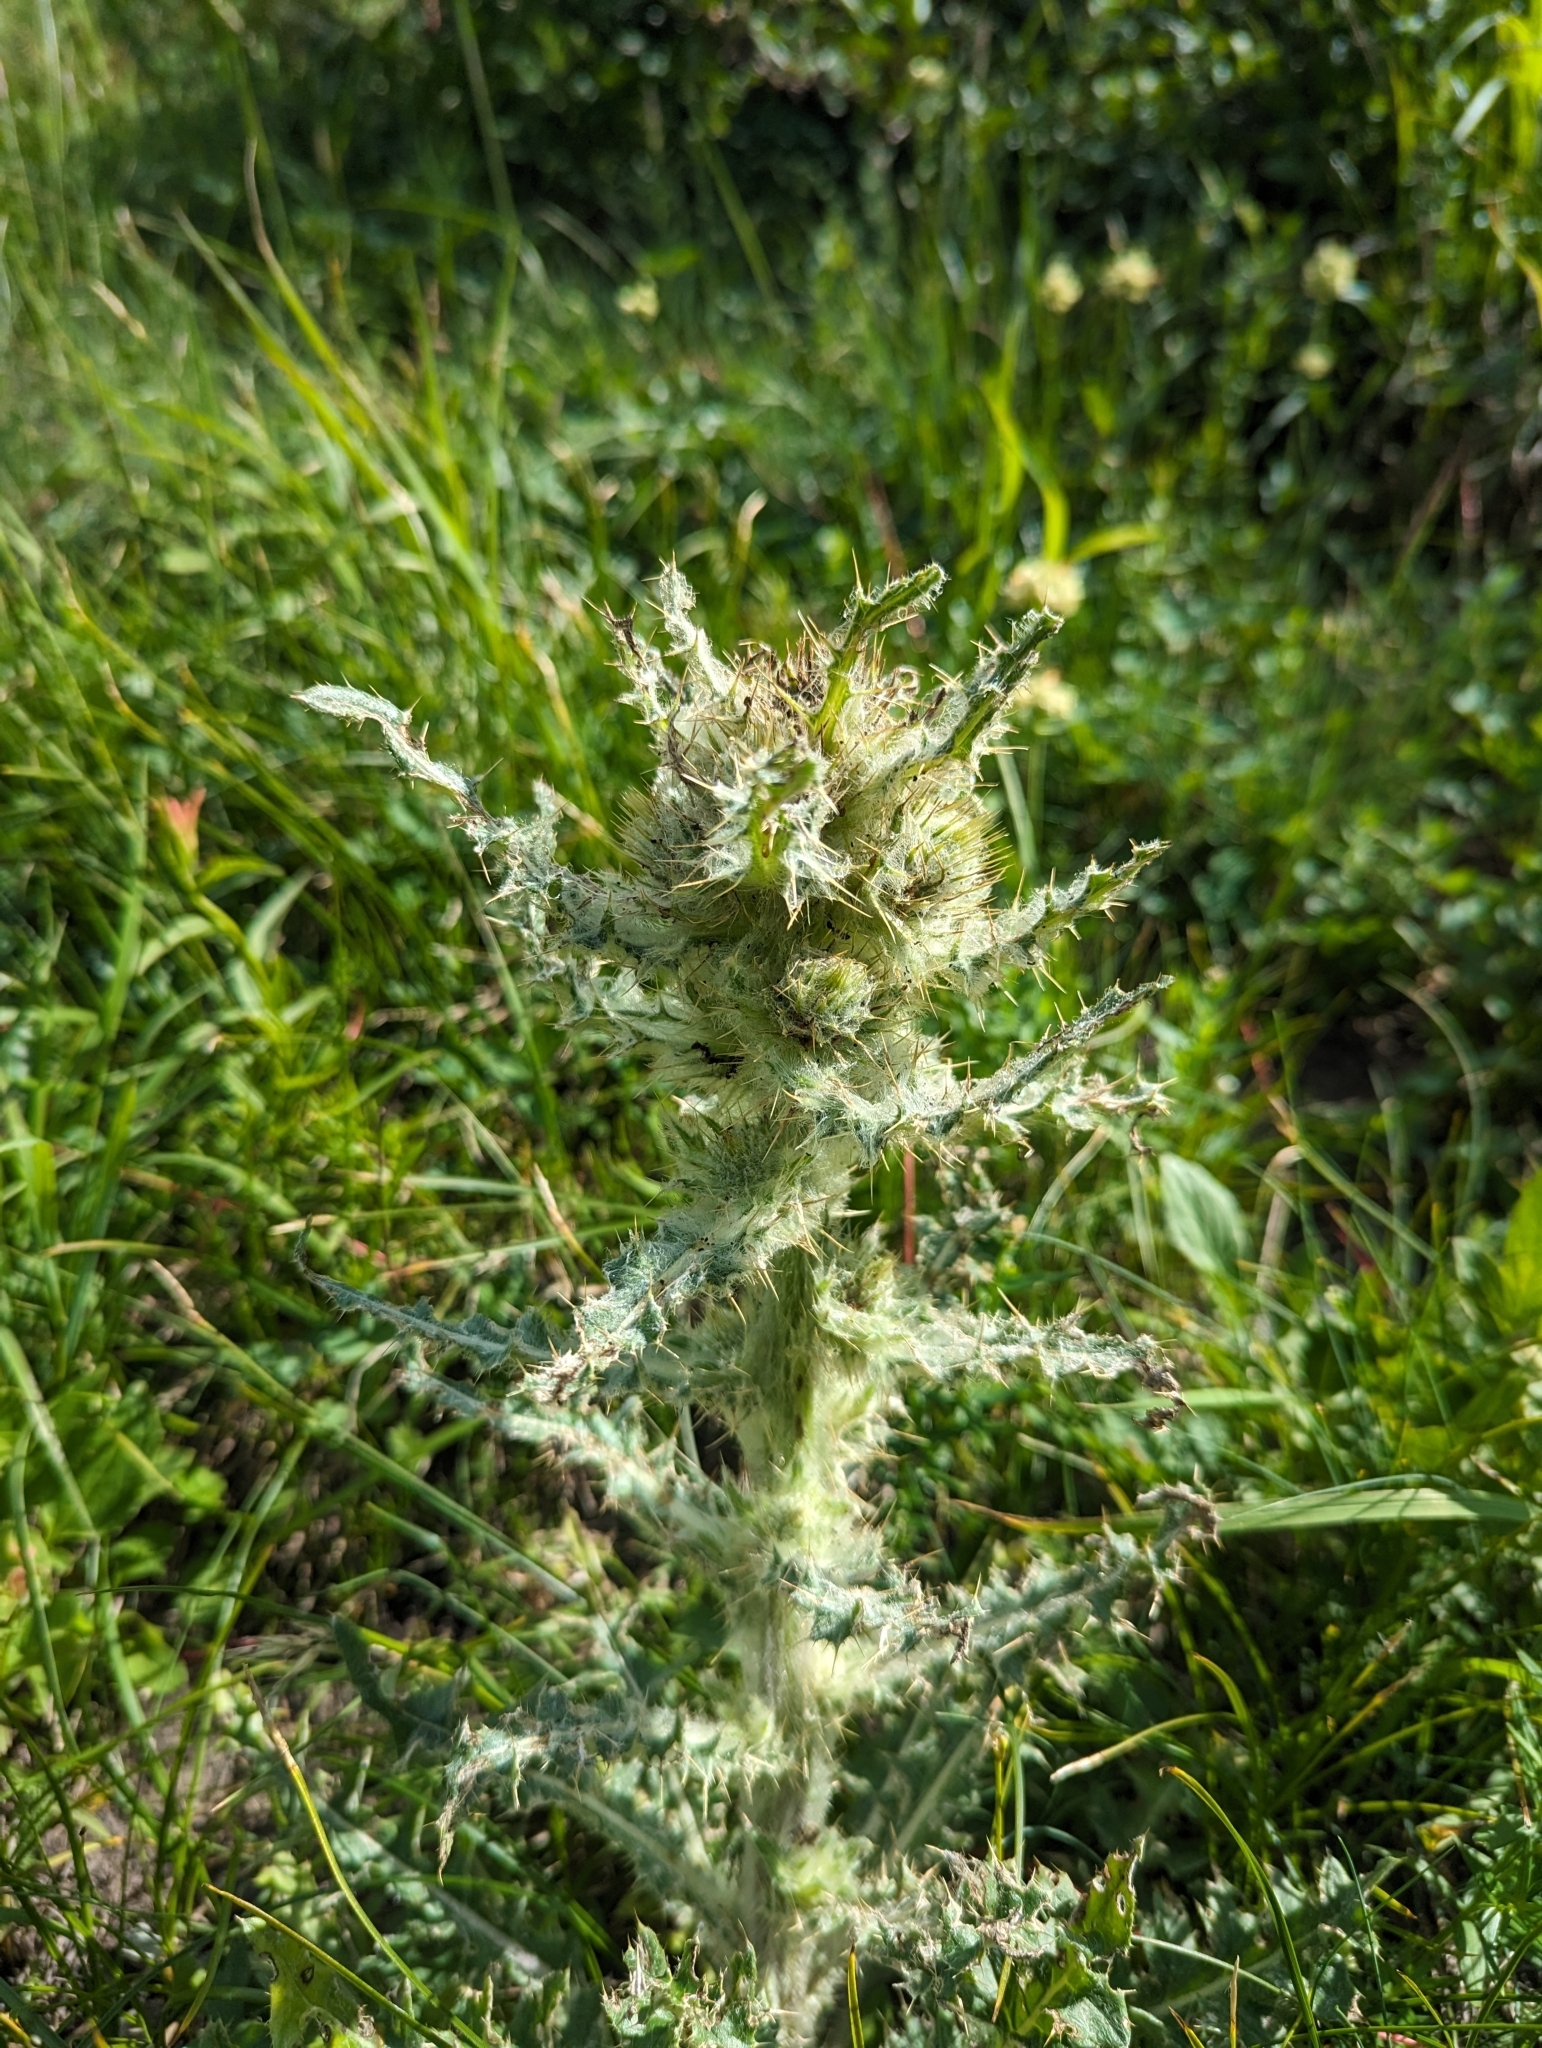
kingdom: Plantae
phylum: Tracheophyta
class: Magnoliopsida
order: Asterales
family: Asteraceae
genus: Cirsium
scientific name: Cirsium hookerianum
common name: Hooker's thistle
